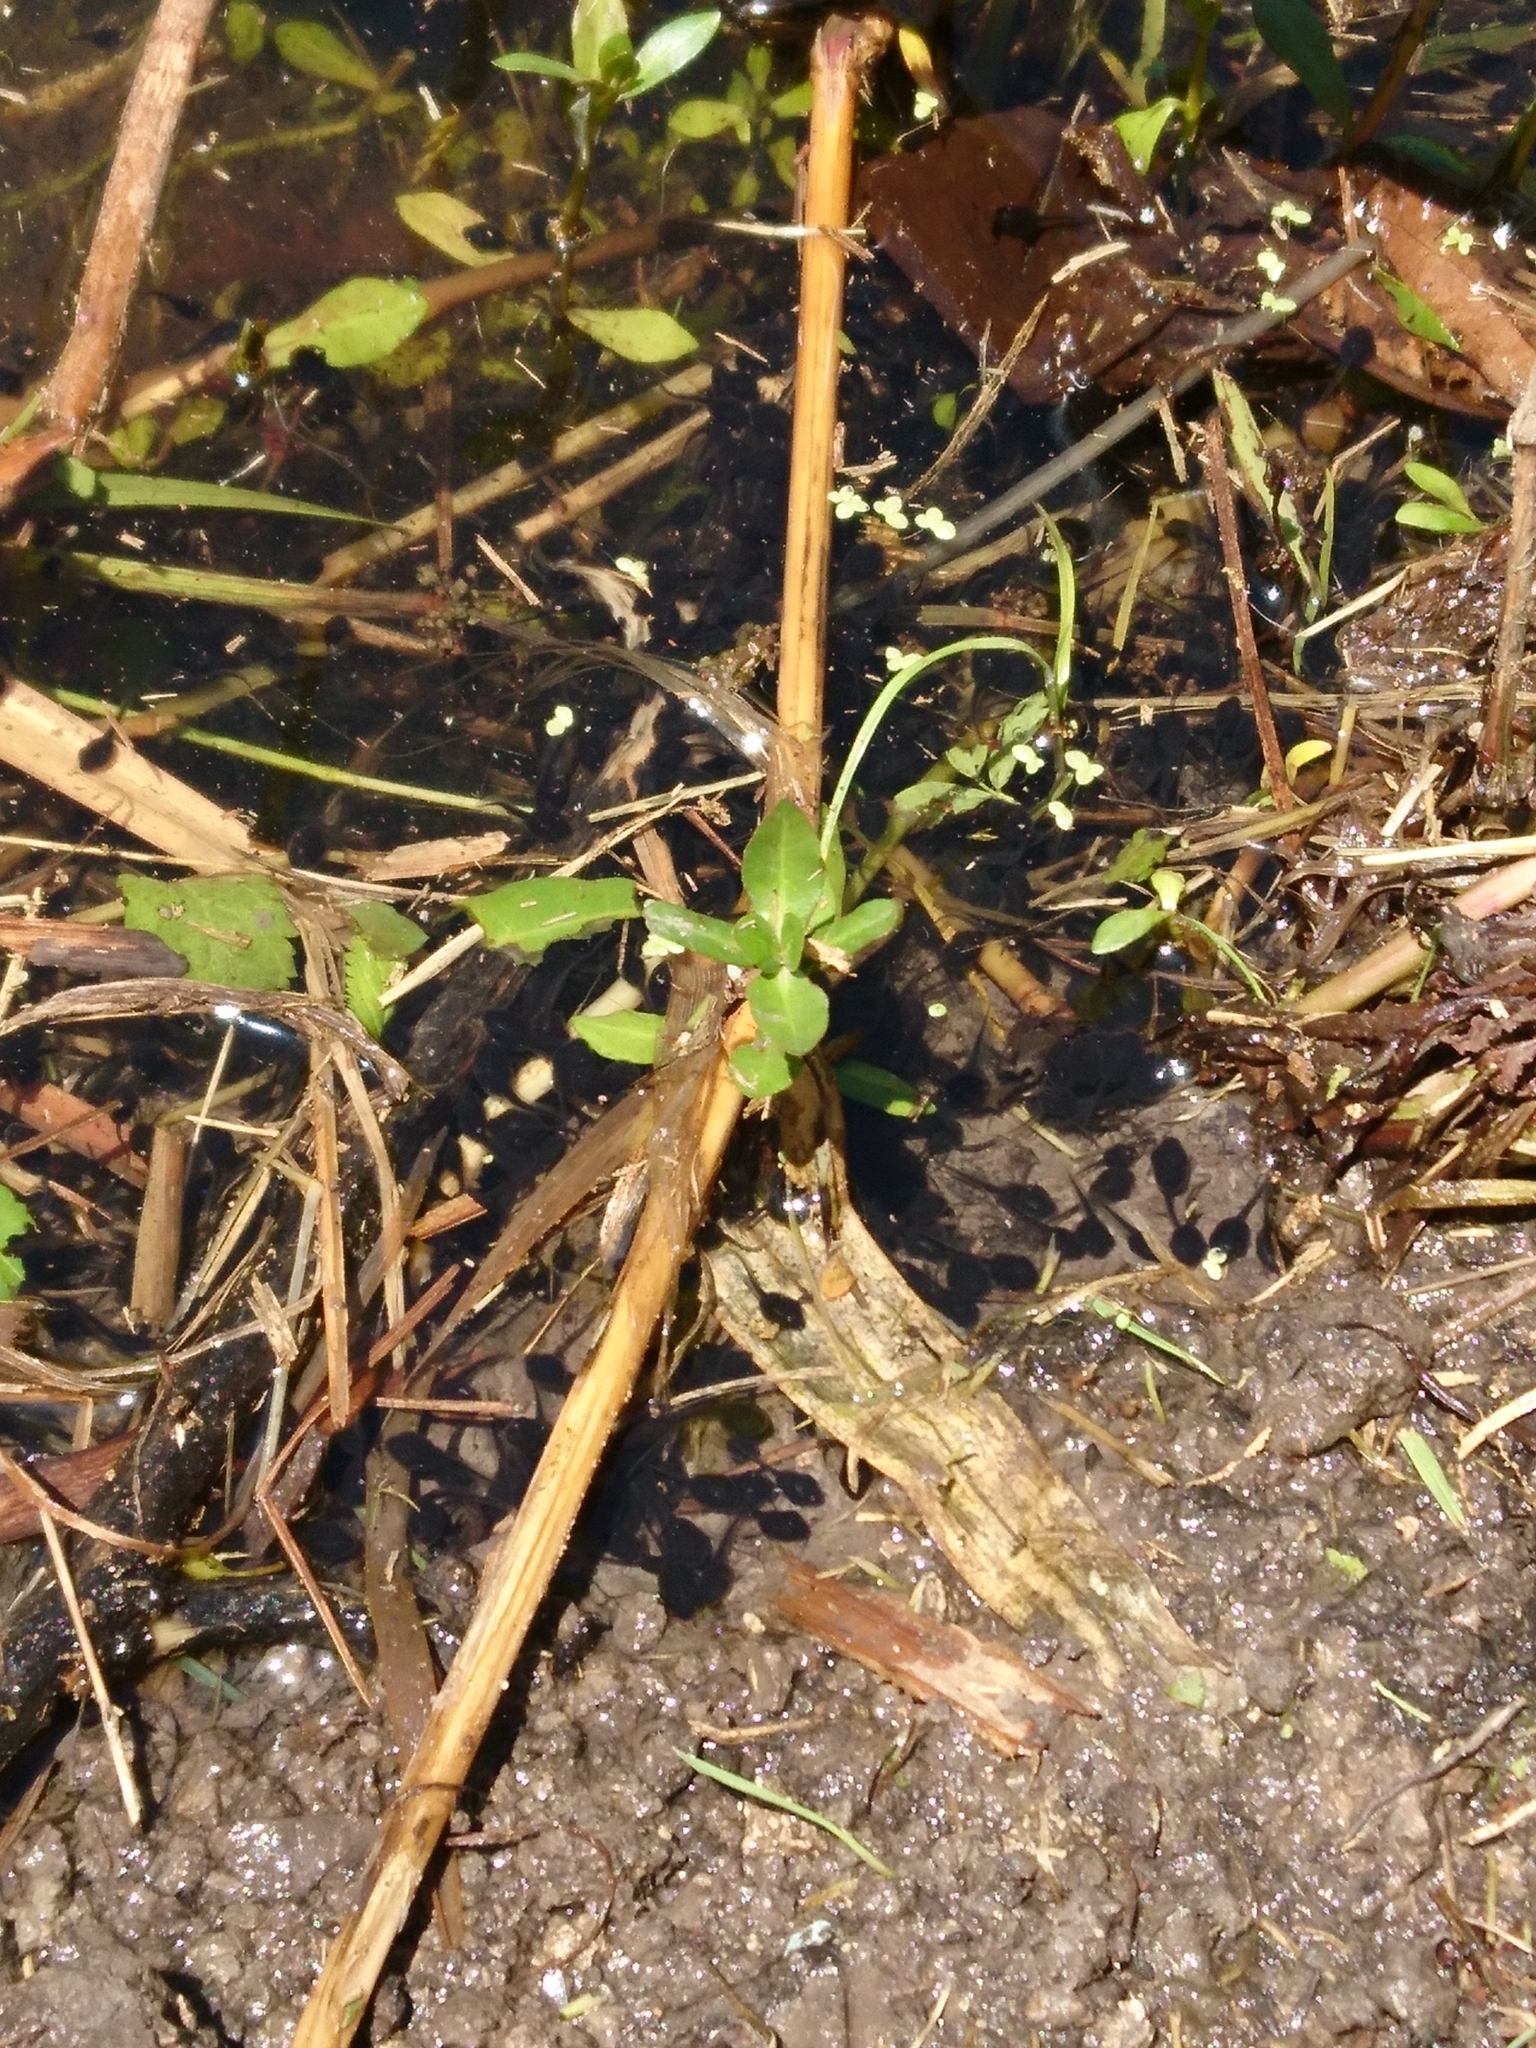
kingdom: Animalia
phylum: Chordata
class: Amphibia
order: Anura
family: Bufonidae
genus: Rhinella
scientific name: Rhinella arenarum
